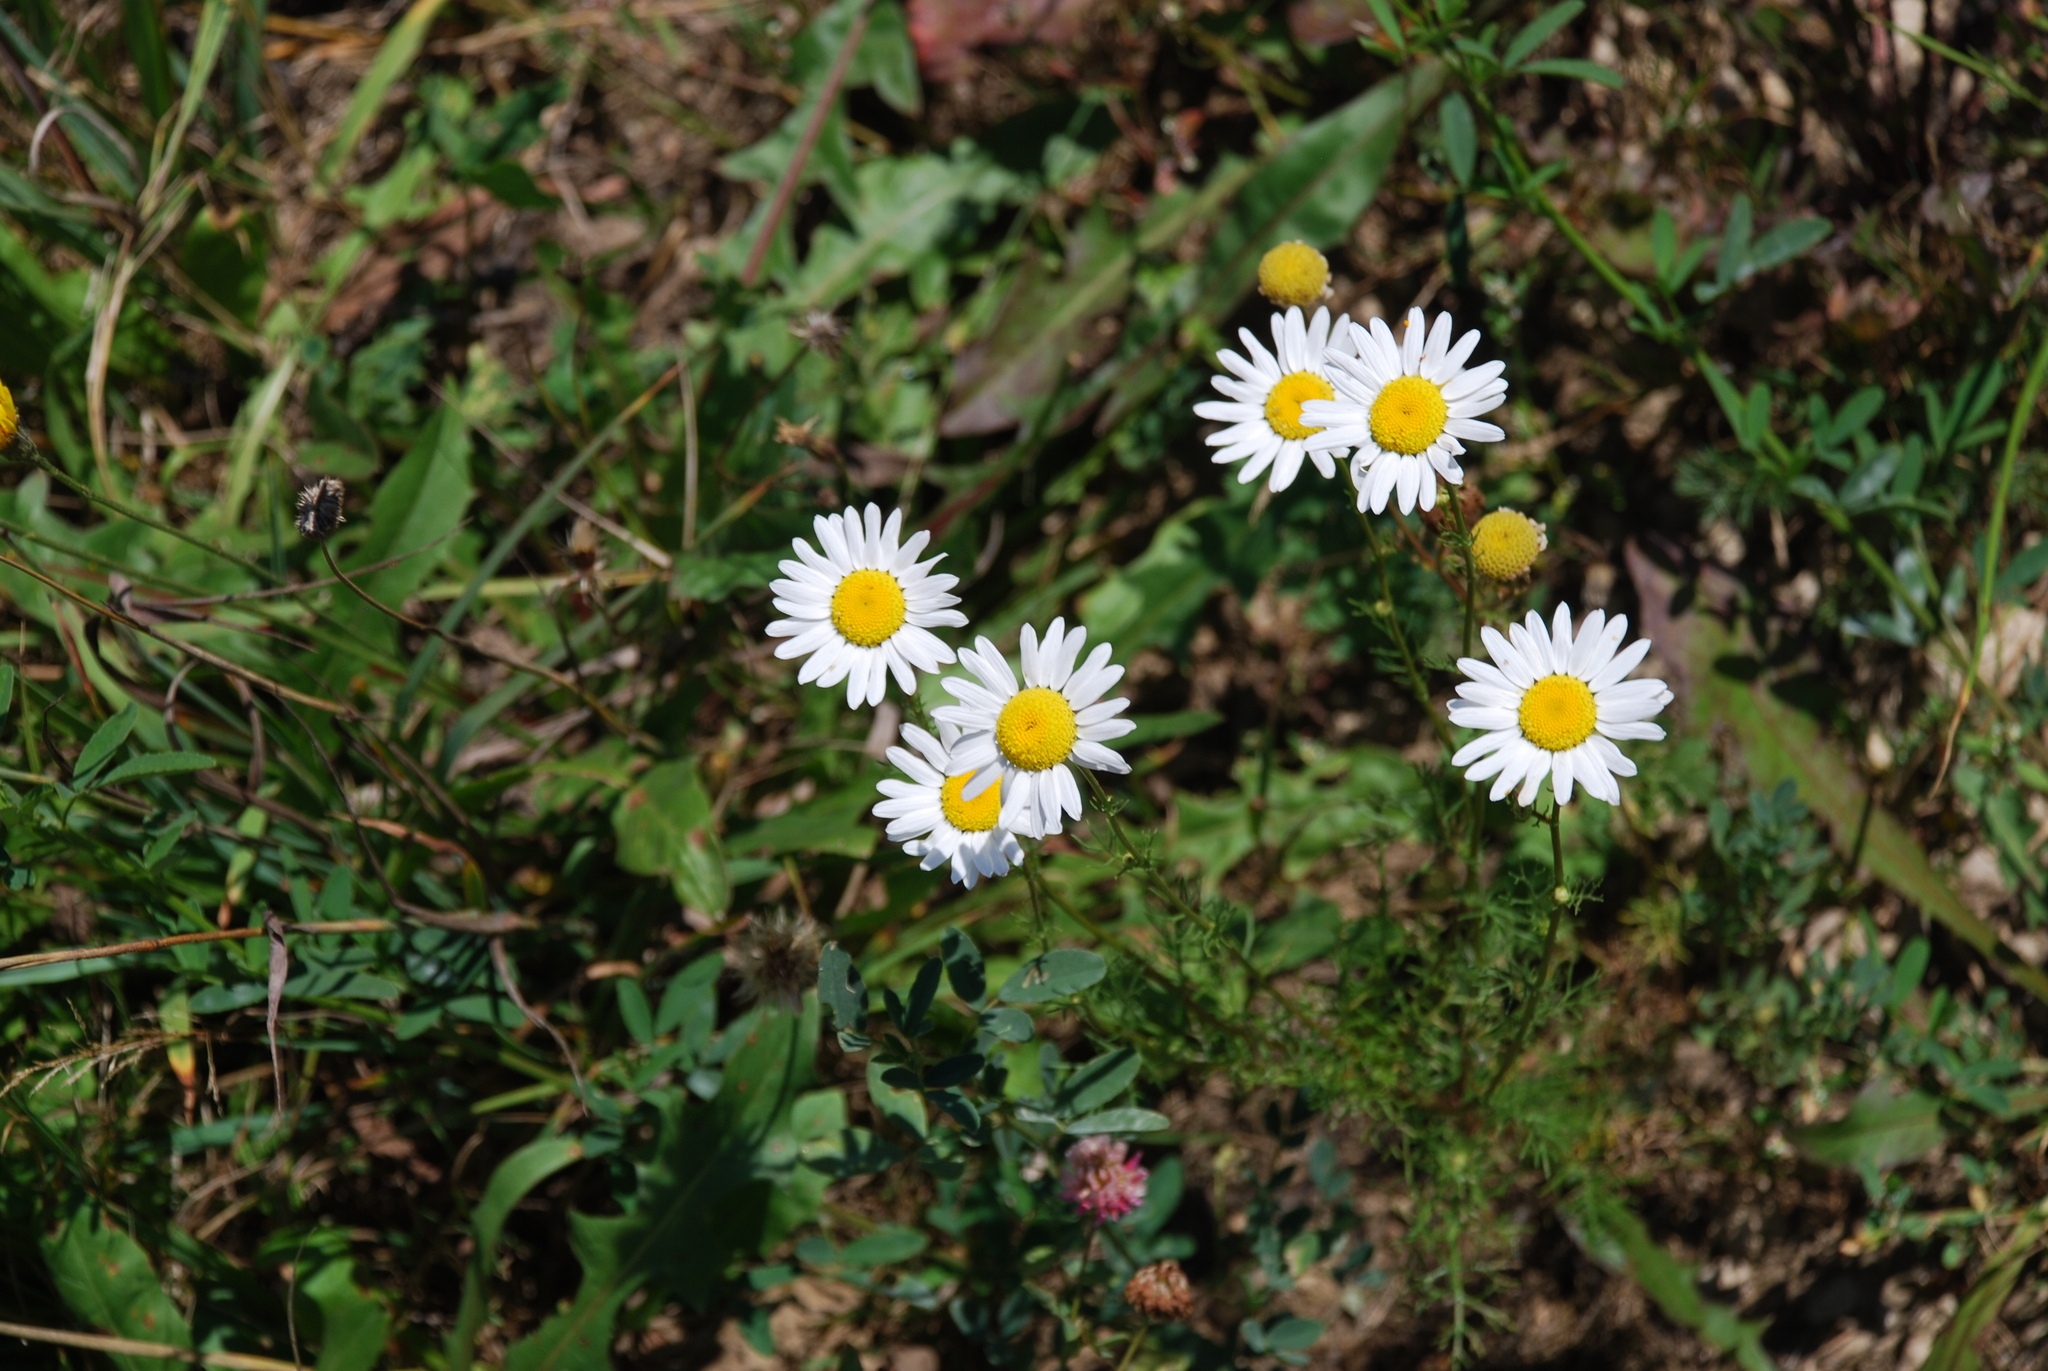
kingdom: Plantae
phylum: Tracheophyta
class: Magnoliopsida
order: Asterales
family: Asteraceae
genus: Tripleurospermum
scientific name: Tripleurospermum inodorum
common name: Scentless mayweed
